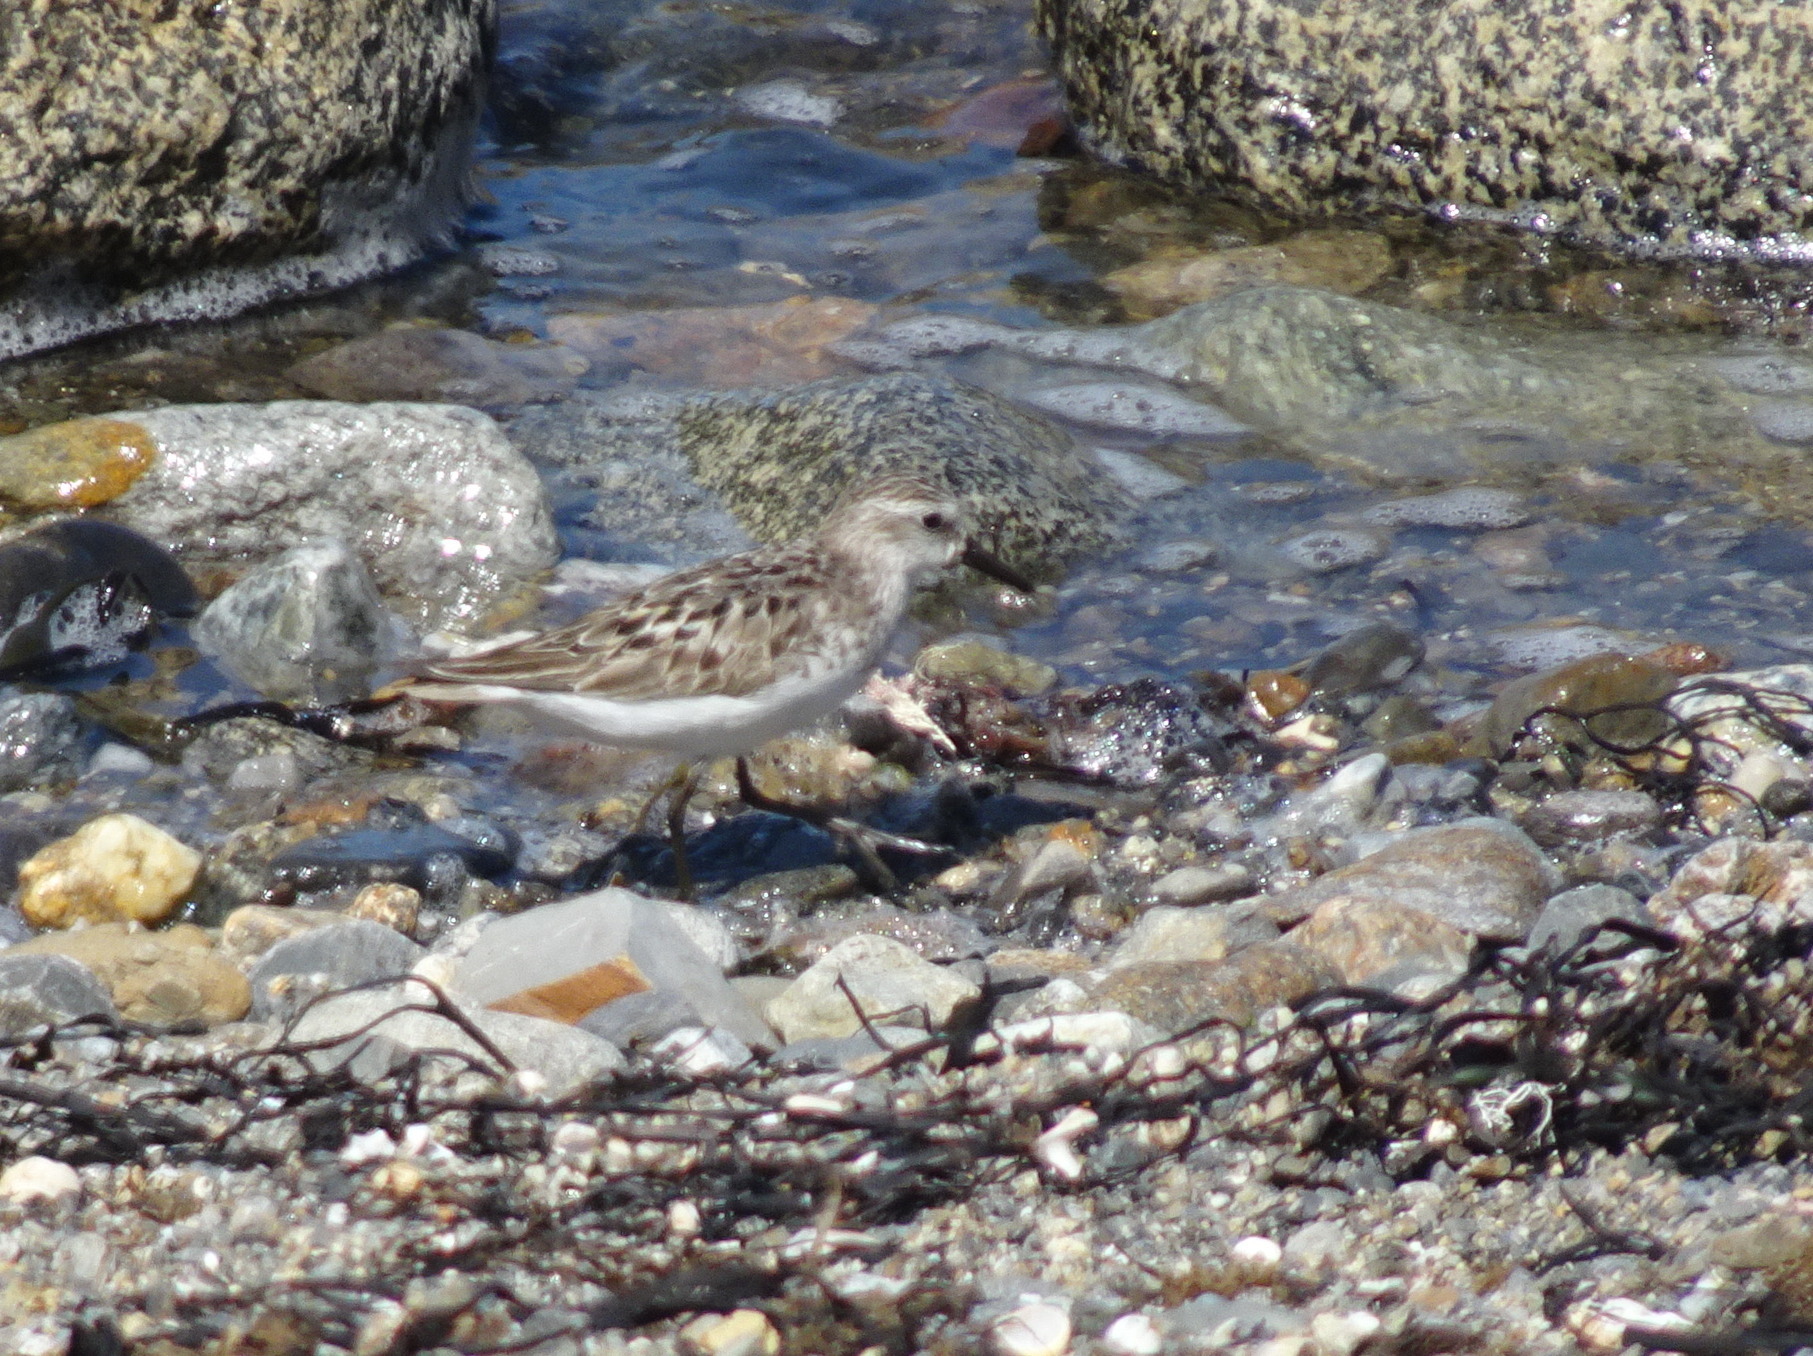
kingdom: Animalia
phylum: Chordata
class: Aves
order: Charadriiformes
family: Scolopacidae
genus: Calidris
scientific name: Calidris pusilla
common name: Semipalmated sandpiper
